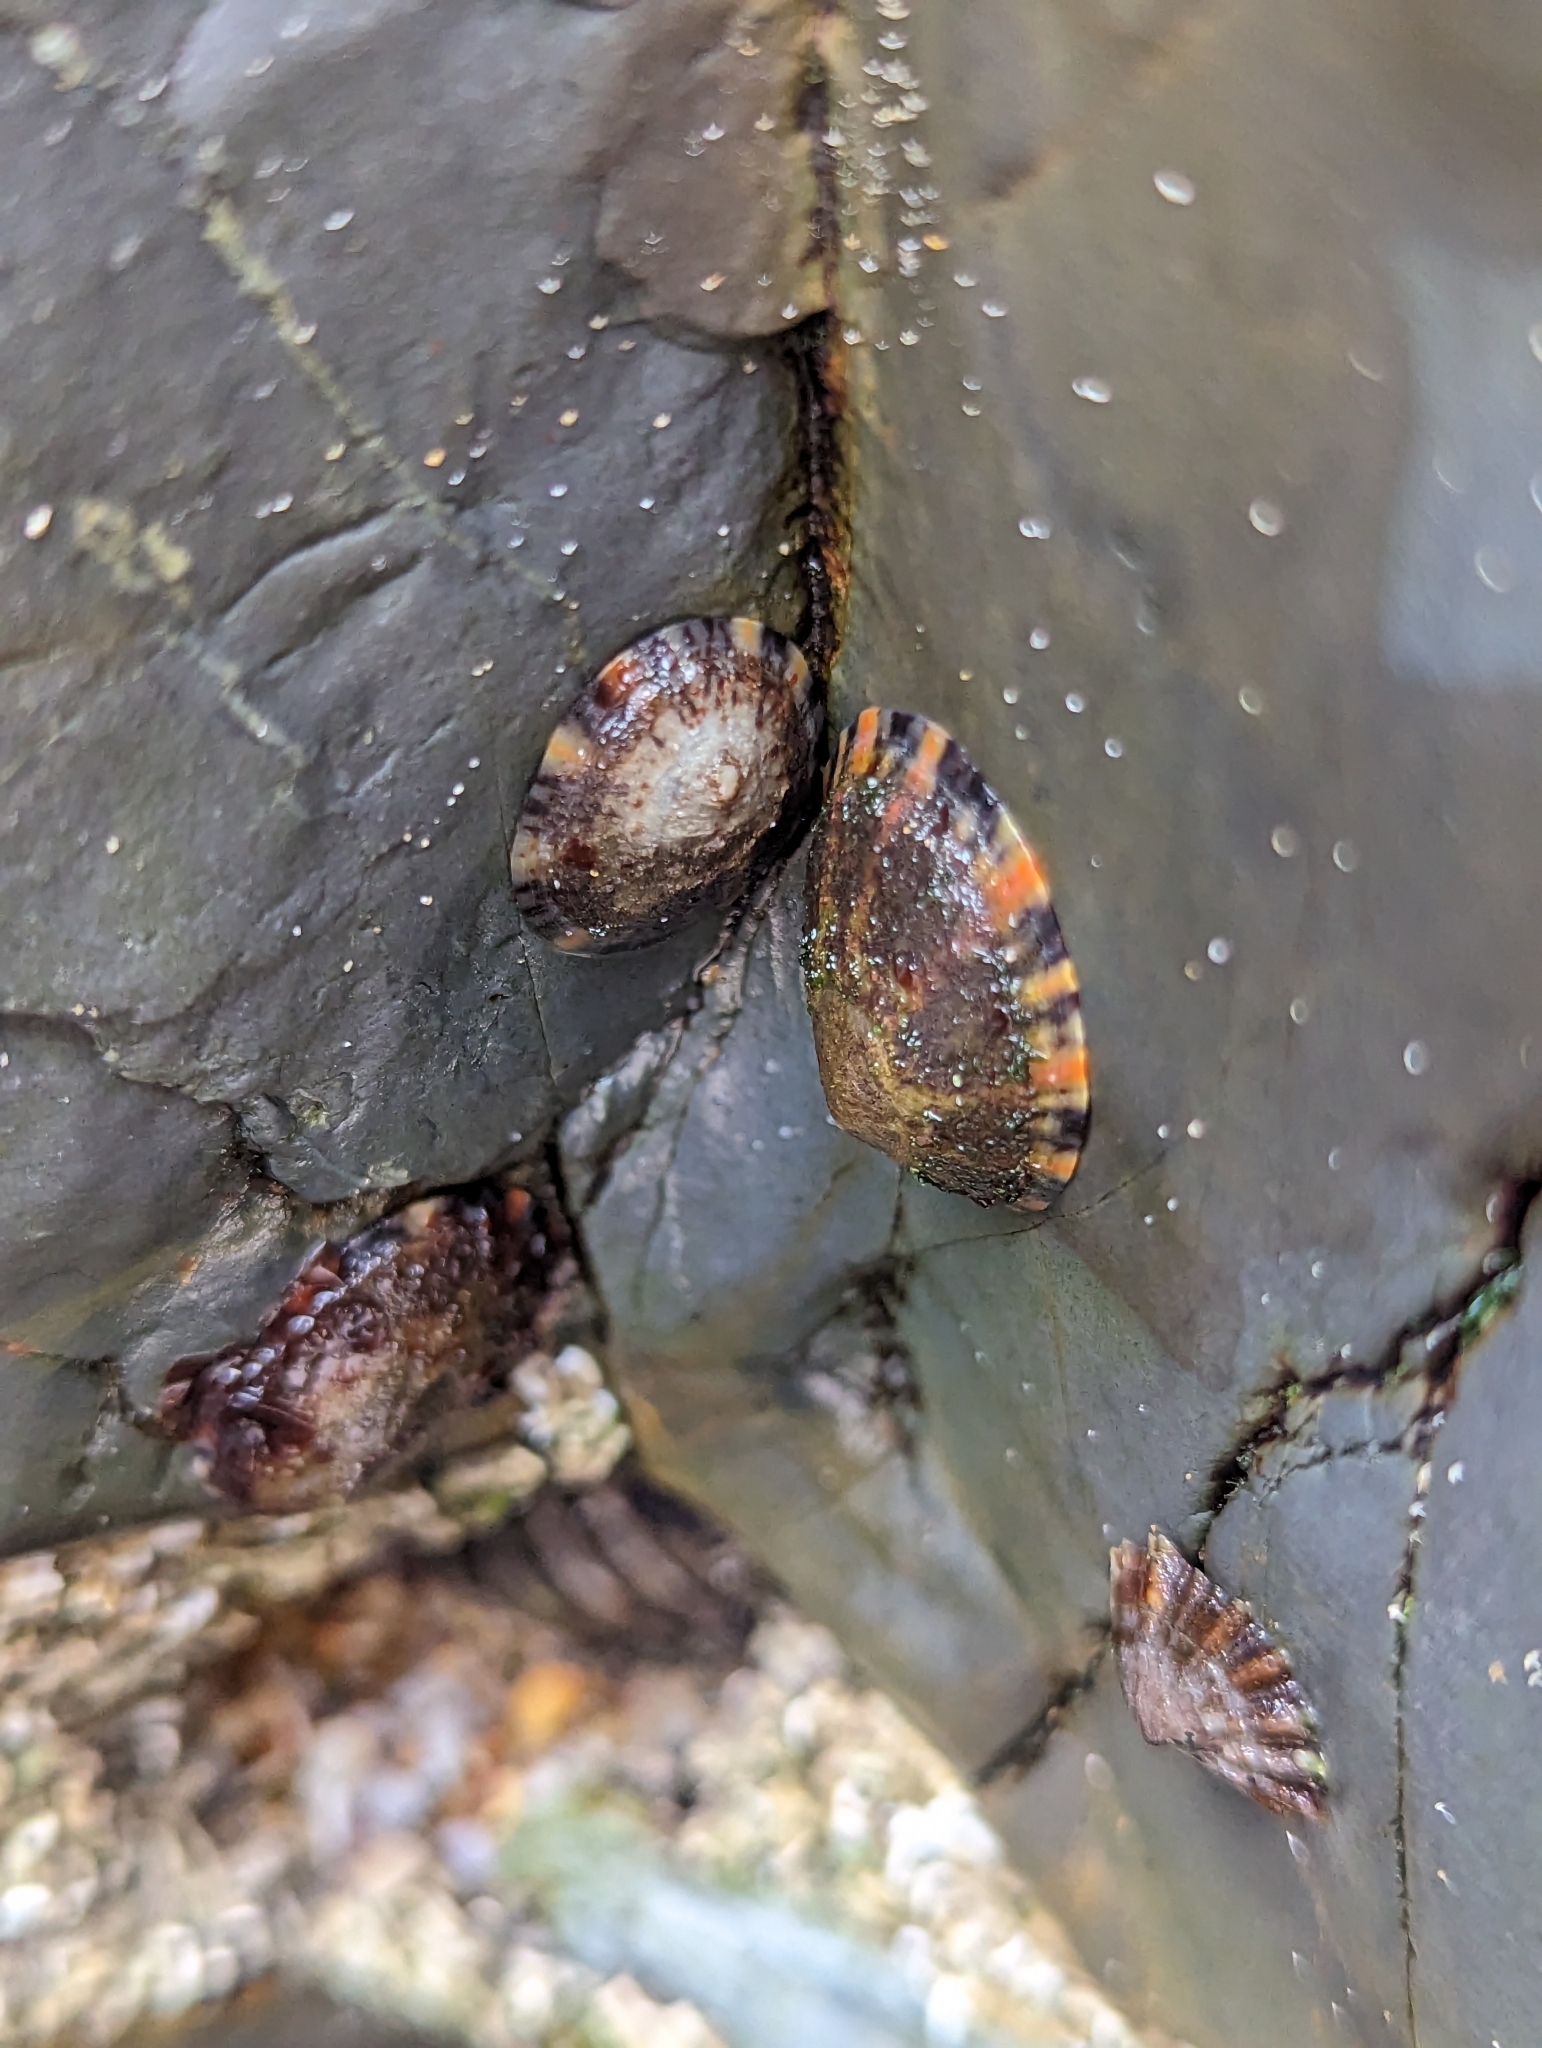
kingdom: Animalia
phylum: Mollusca
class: Gastropoda
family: Nacellidae
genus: Cellana
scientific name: Cellana tramoserica
